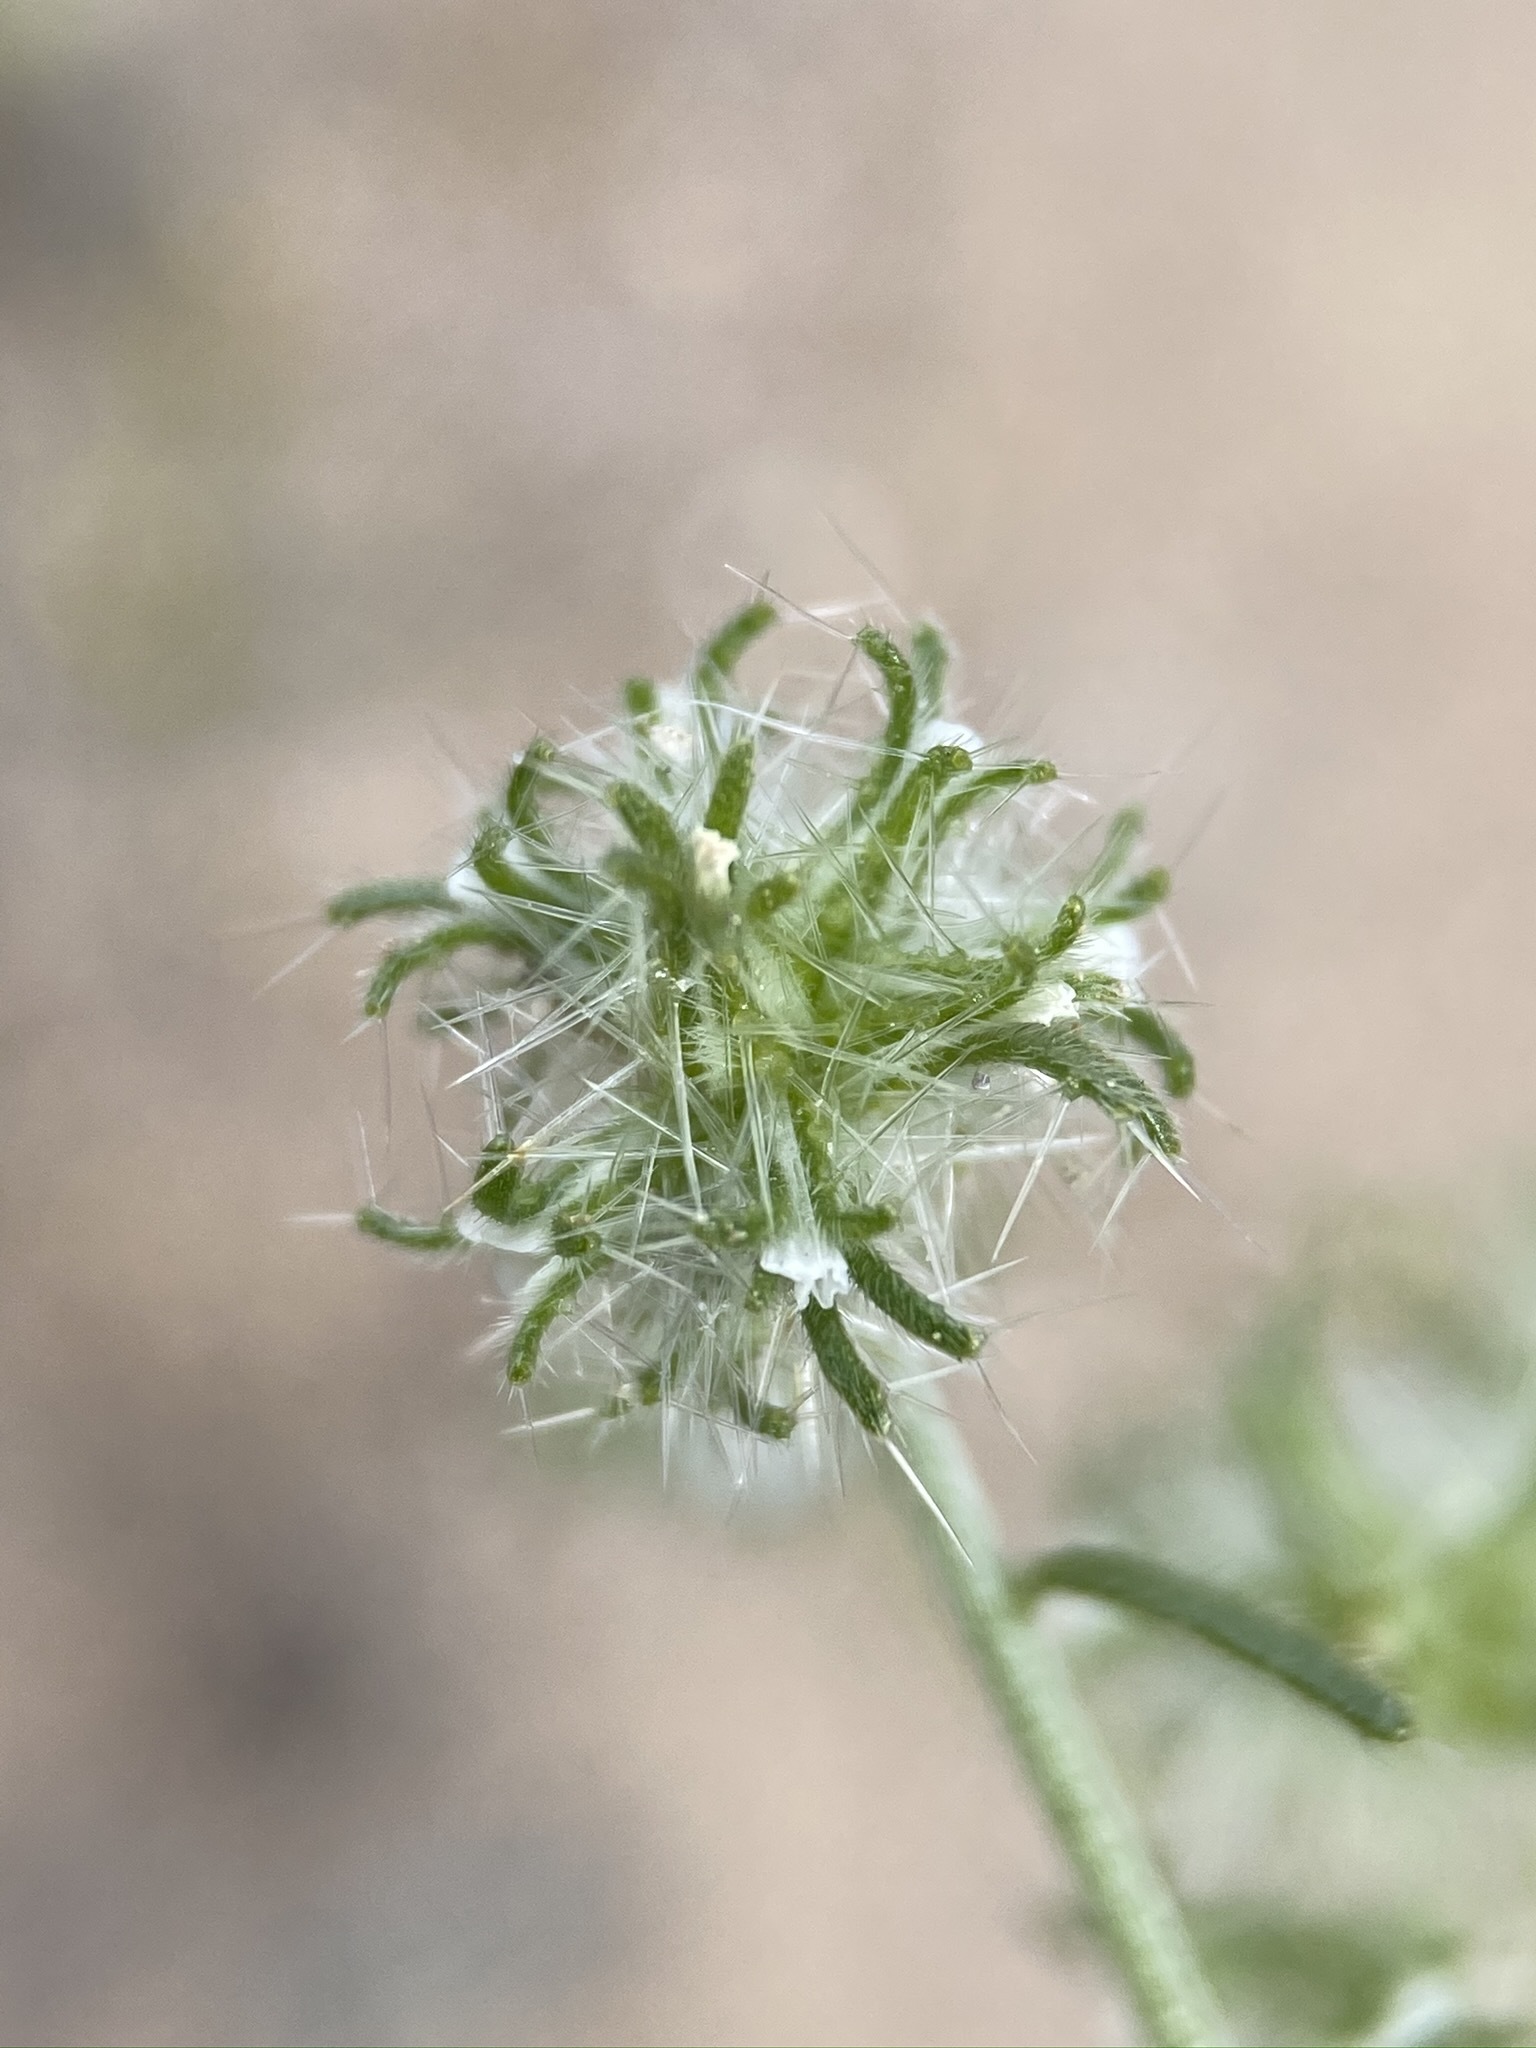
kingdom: Plantae
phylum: Tracheophyta
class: Magnoliopsida
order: Boraginales
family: Boraginaceae
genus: Cryptantha
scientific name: Cryptantha nevadensis
